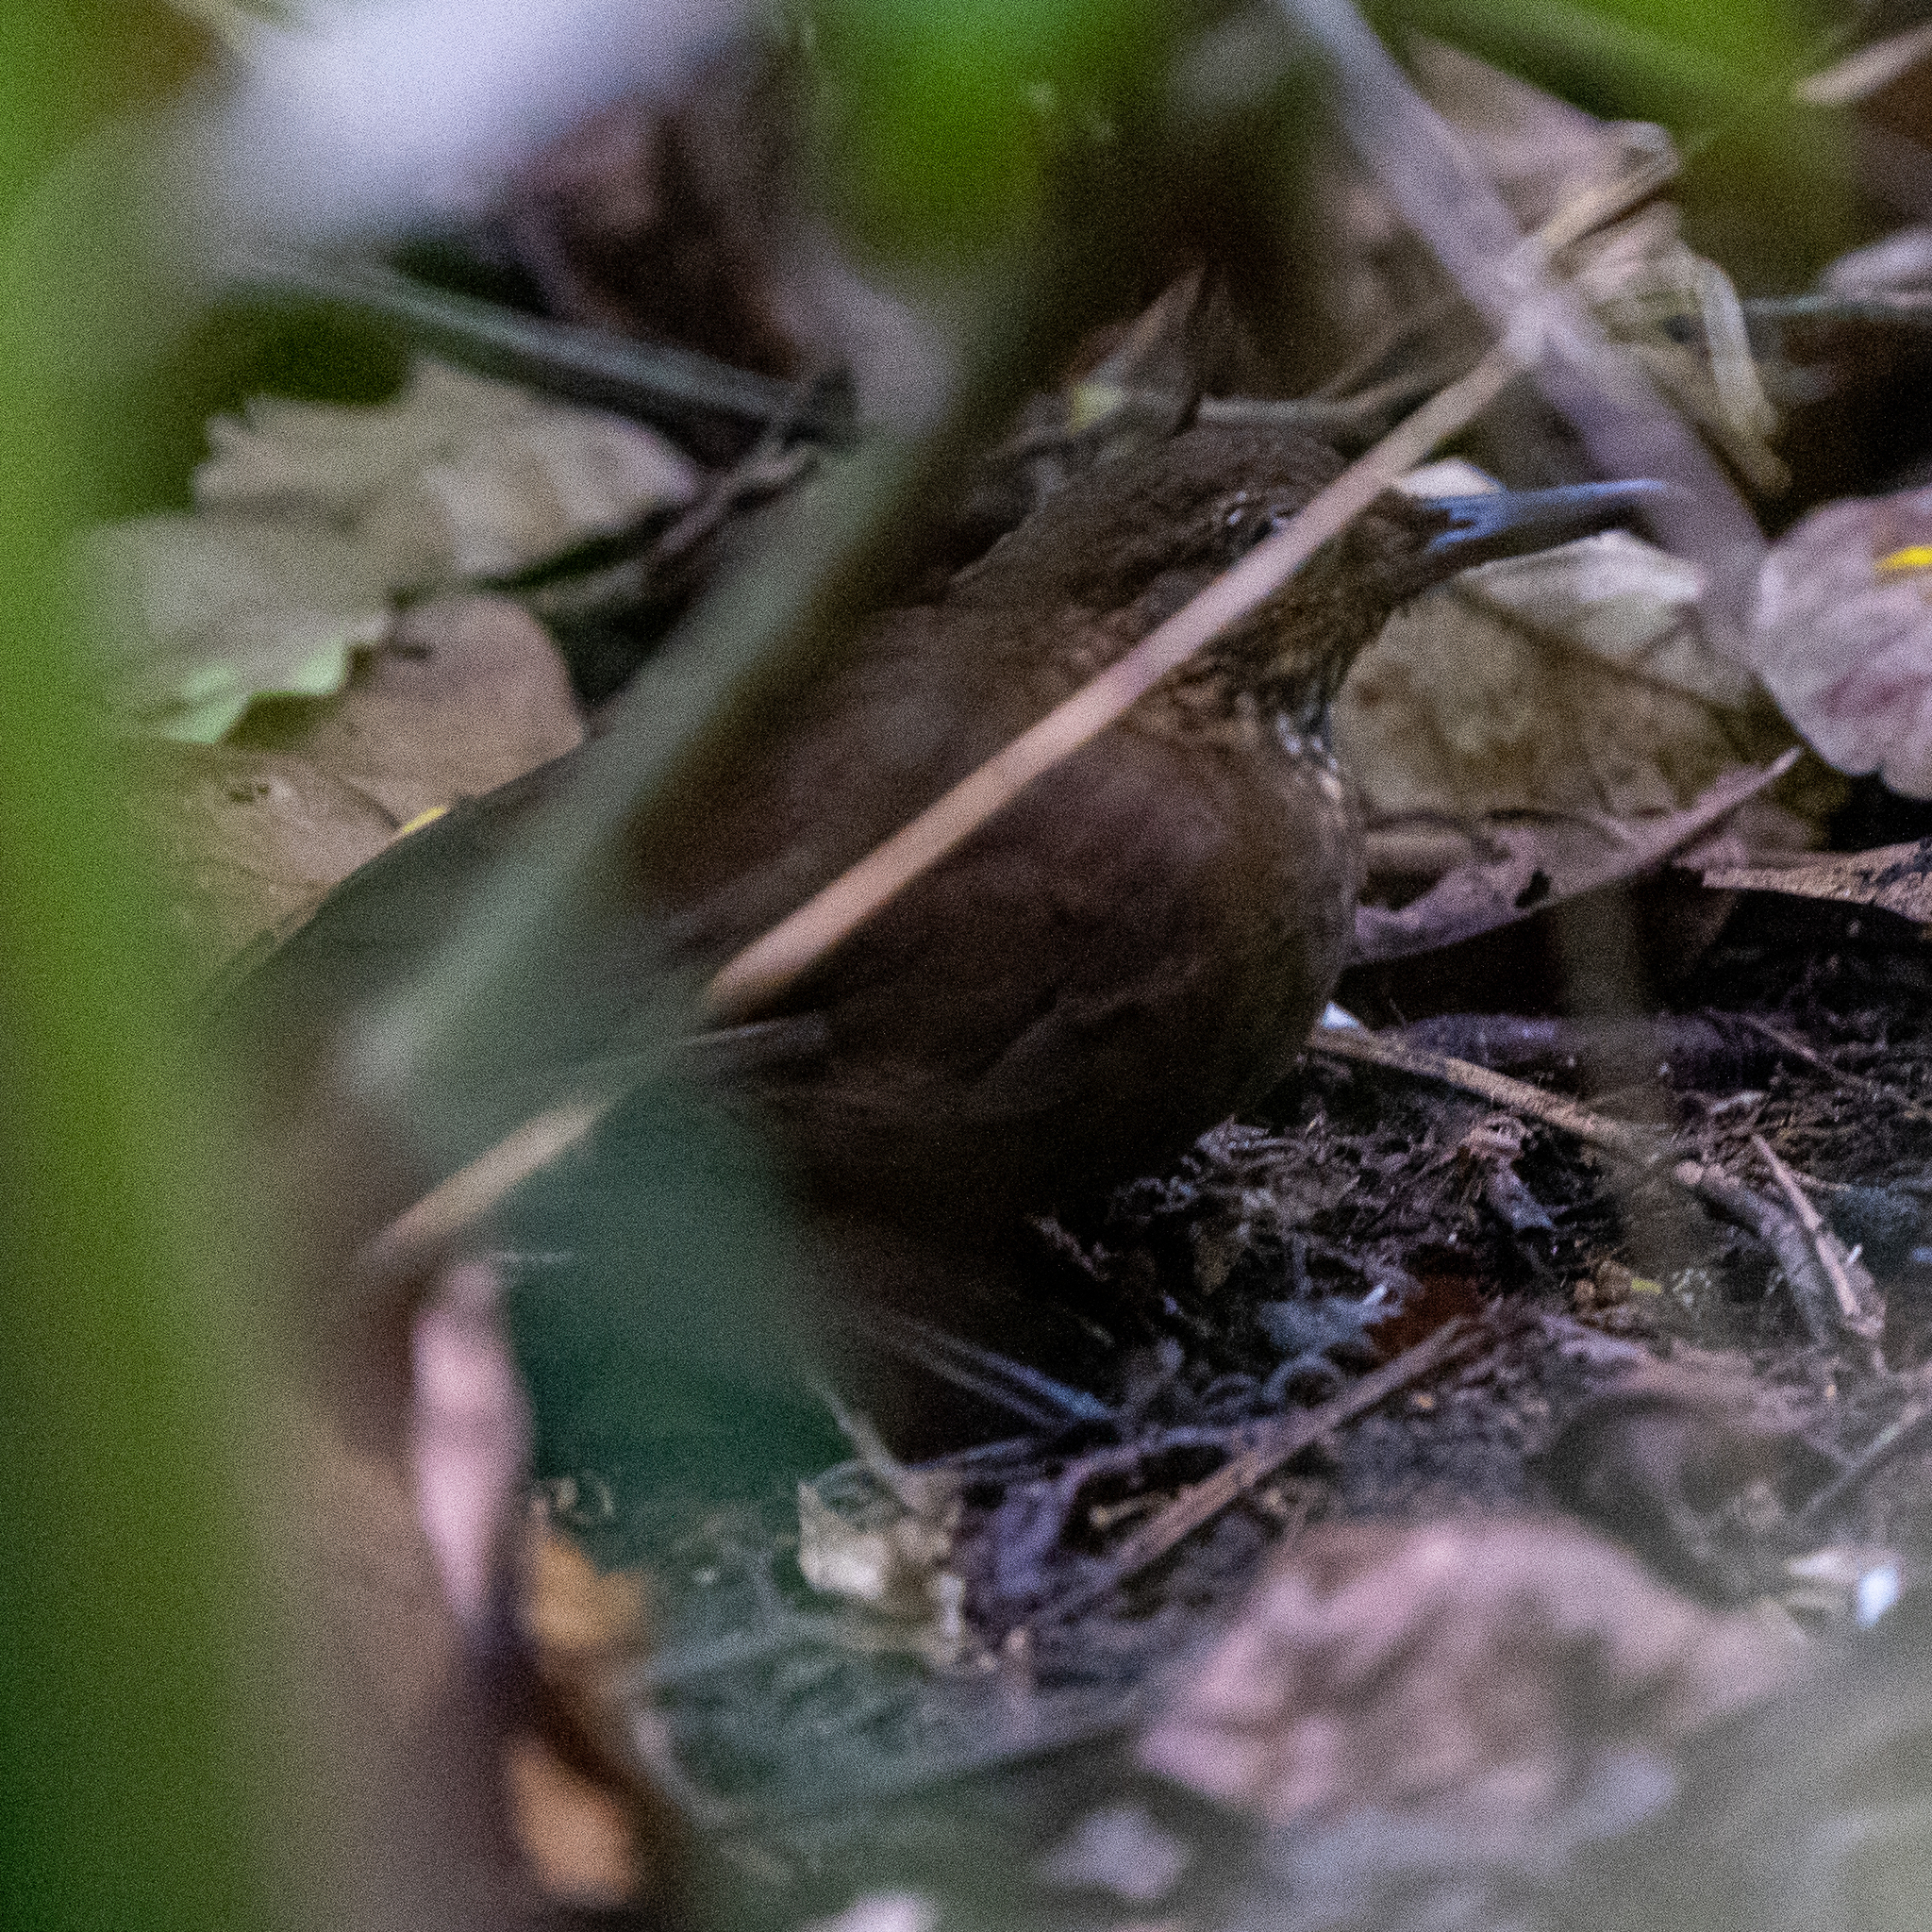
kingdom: Animalia
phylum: Chordata
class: Aves
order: Passeriformes
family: Furnariidae
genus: Sclerurus
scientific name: Sclerurus guatemalensis
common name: Scaly-throated leaftosser
